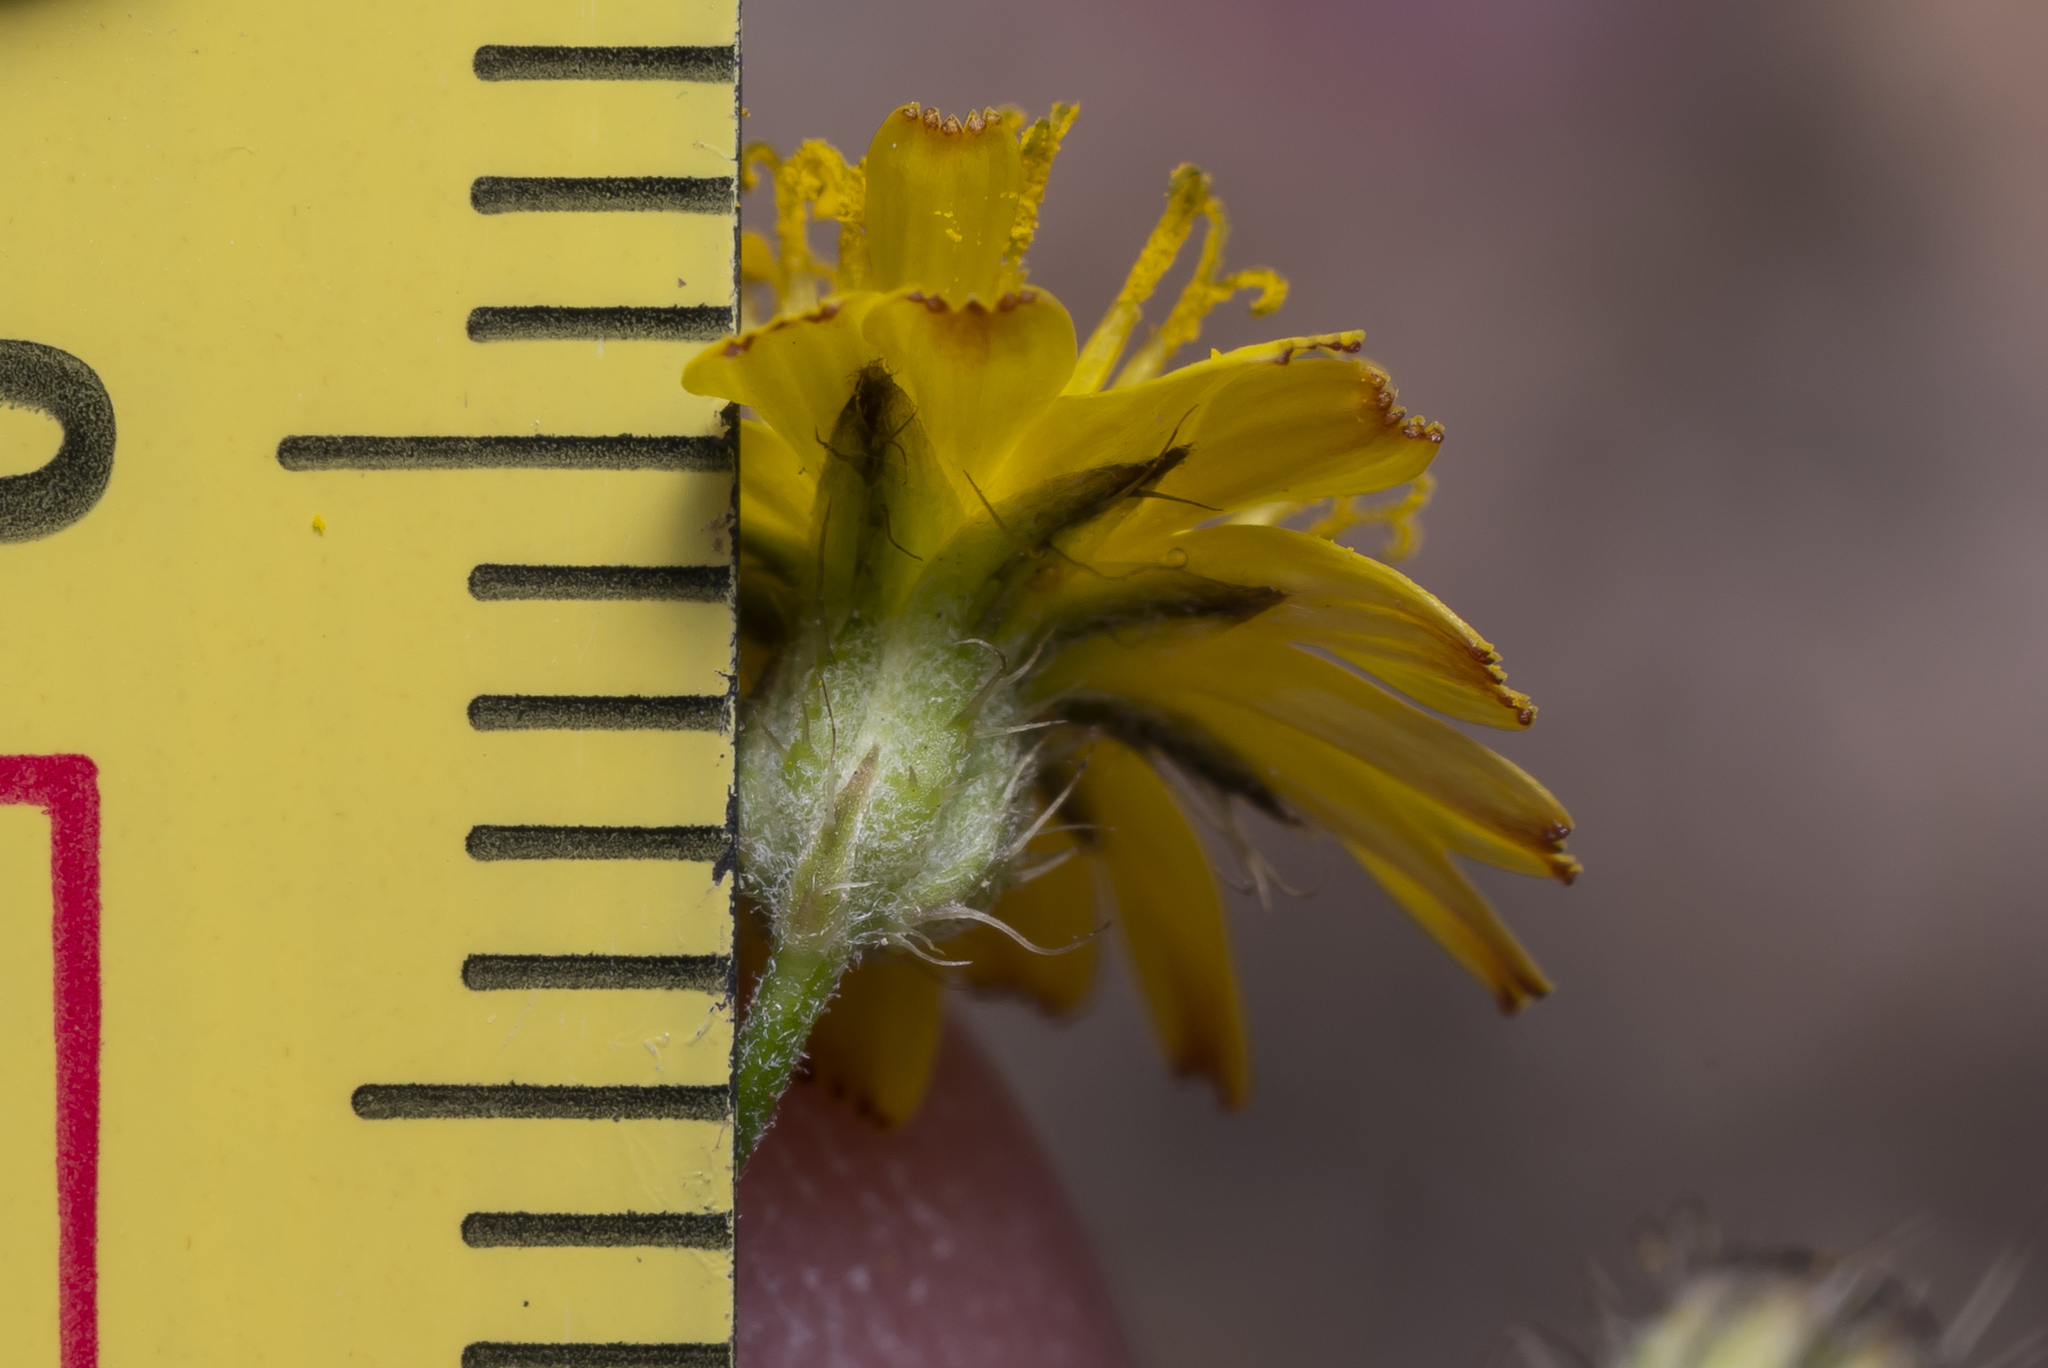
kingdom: Plantae
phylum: Tracheophyta
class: Magnoliopsida
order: Asterales
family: Asteraceae
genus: Crepis
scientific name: Crepis micrantha
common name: Hawk's-beard
